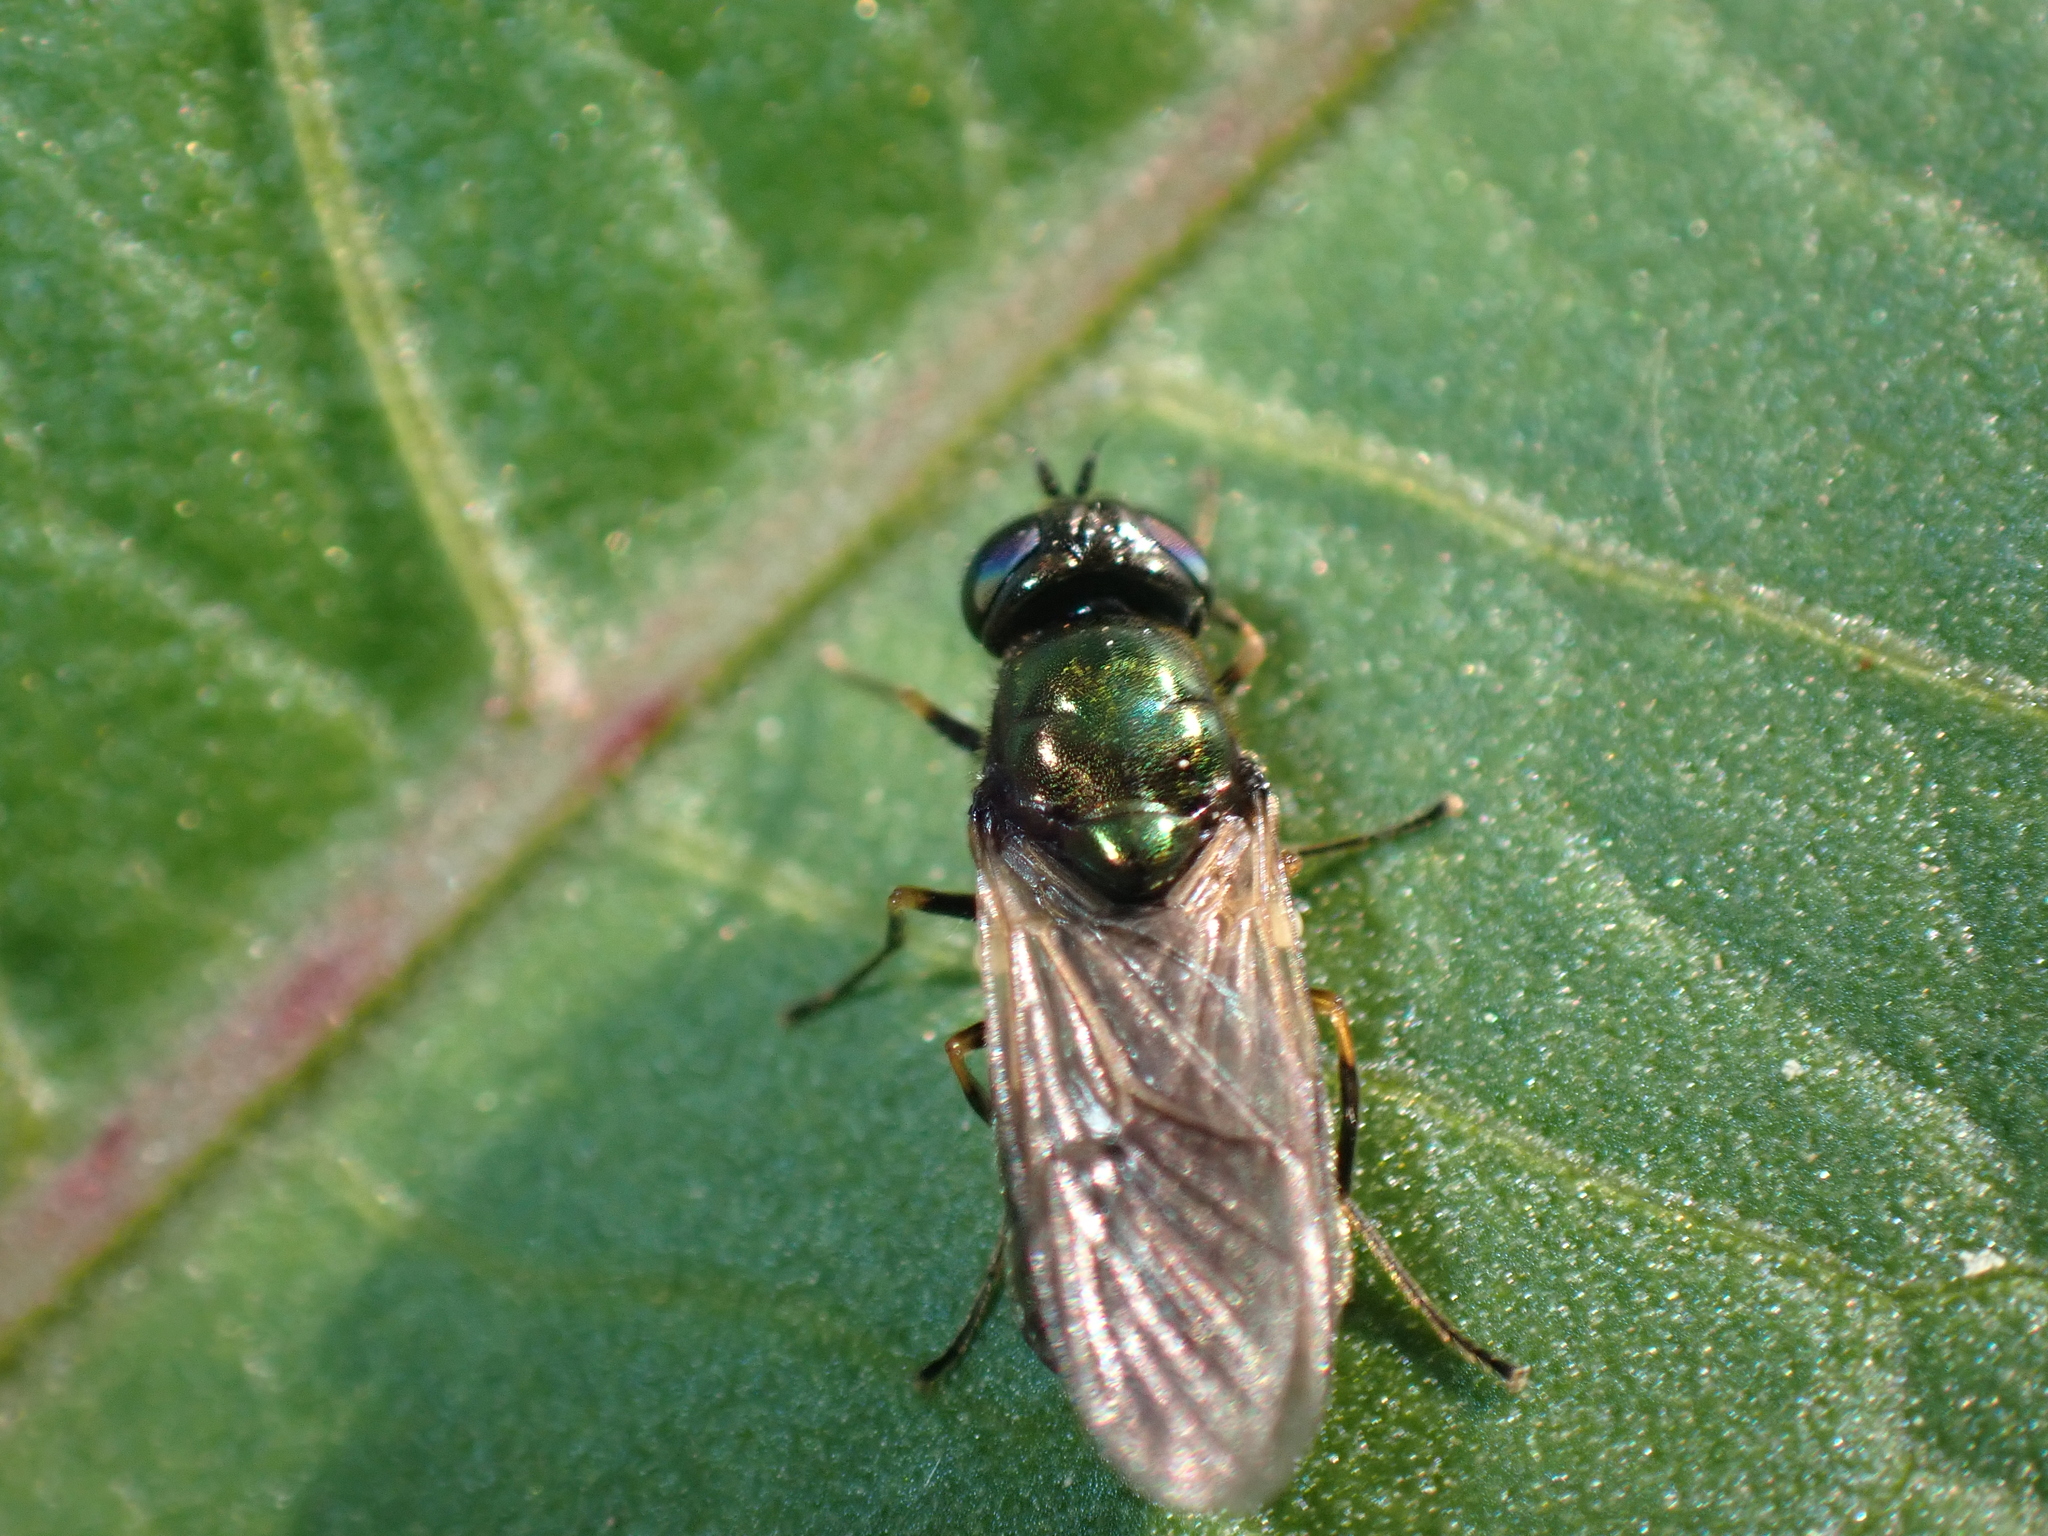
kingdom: Animalia
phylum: Arthropoda
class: Insecta
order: Diptera
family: Stratiomyidae
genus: Chloromyia
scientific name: Chloromyia formosa
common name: Soldier fly
